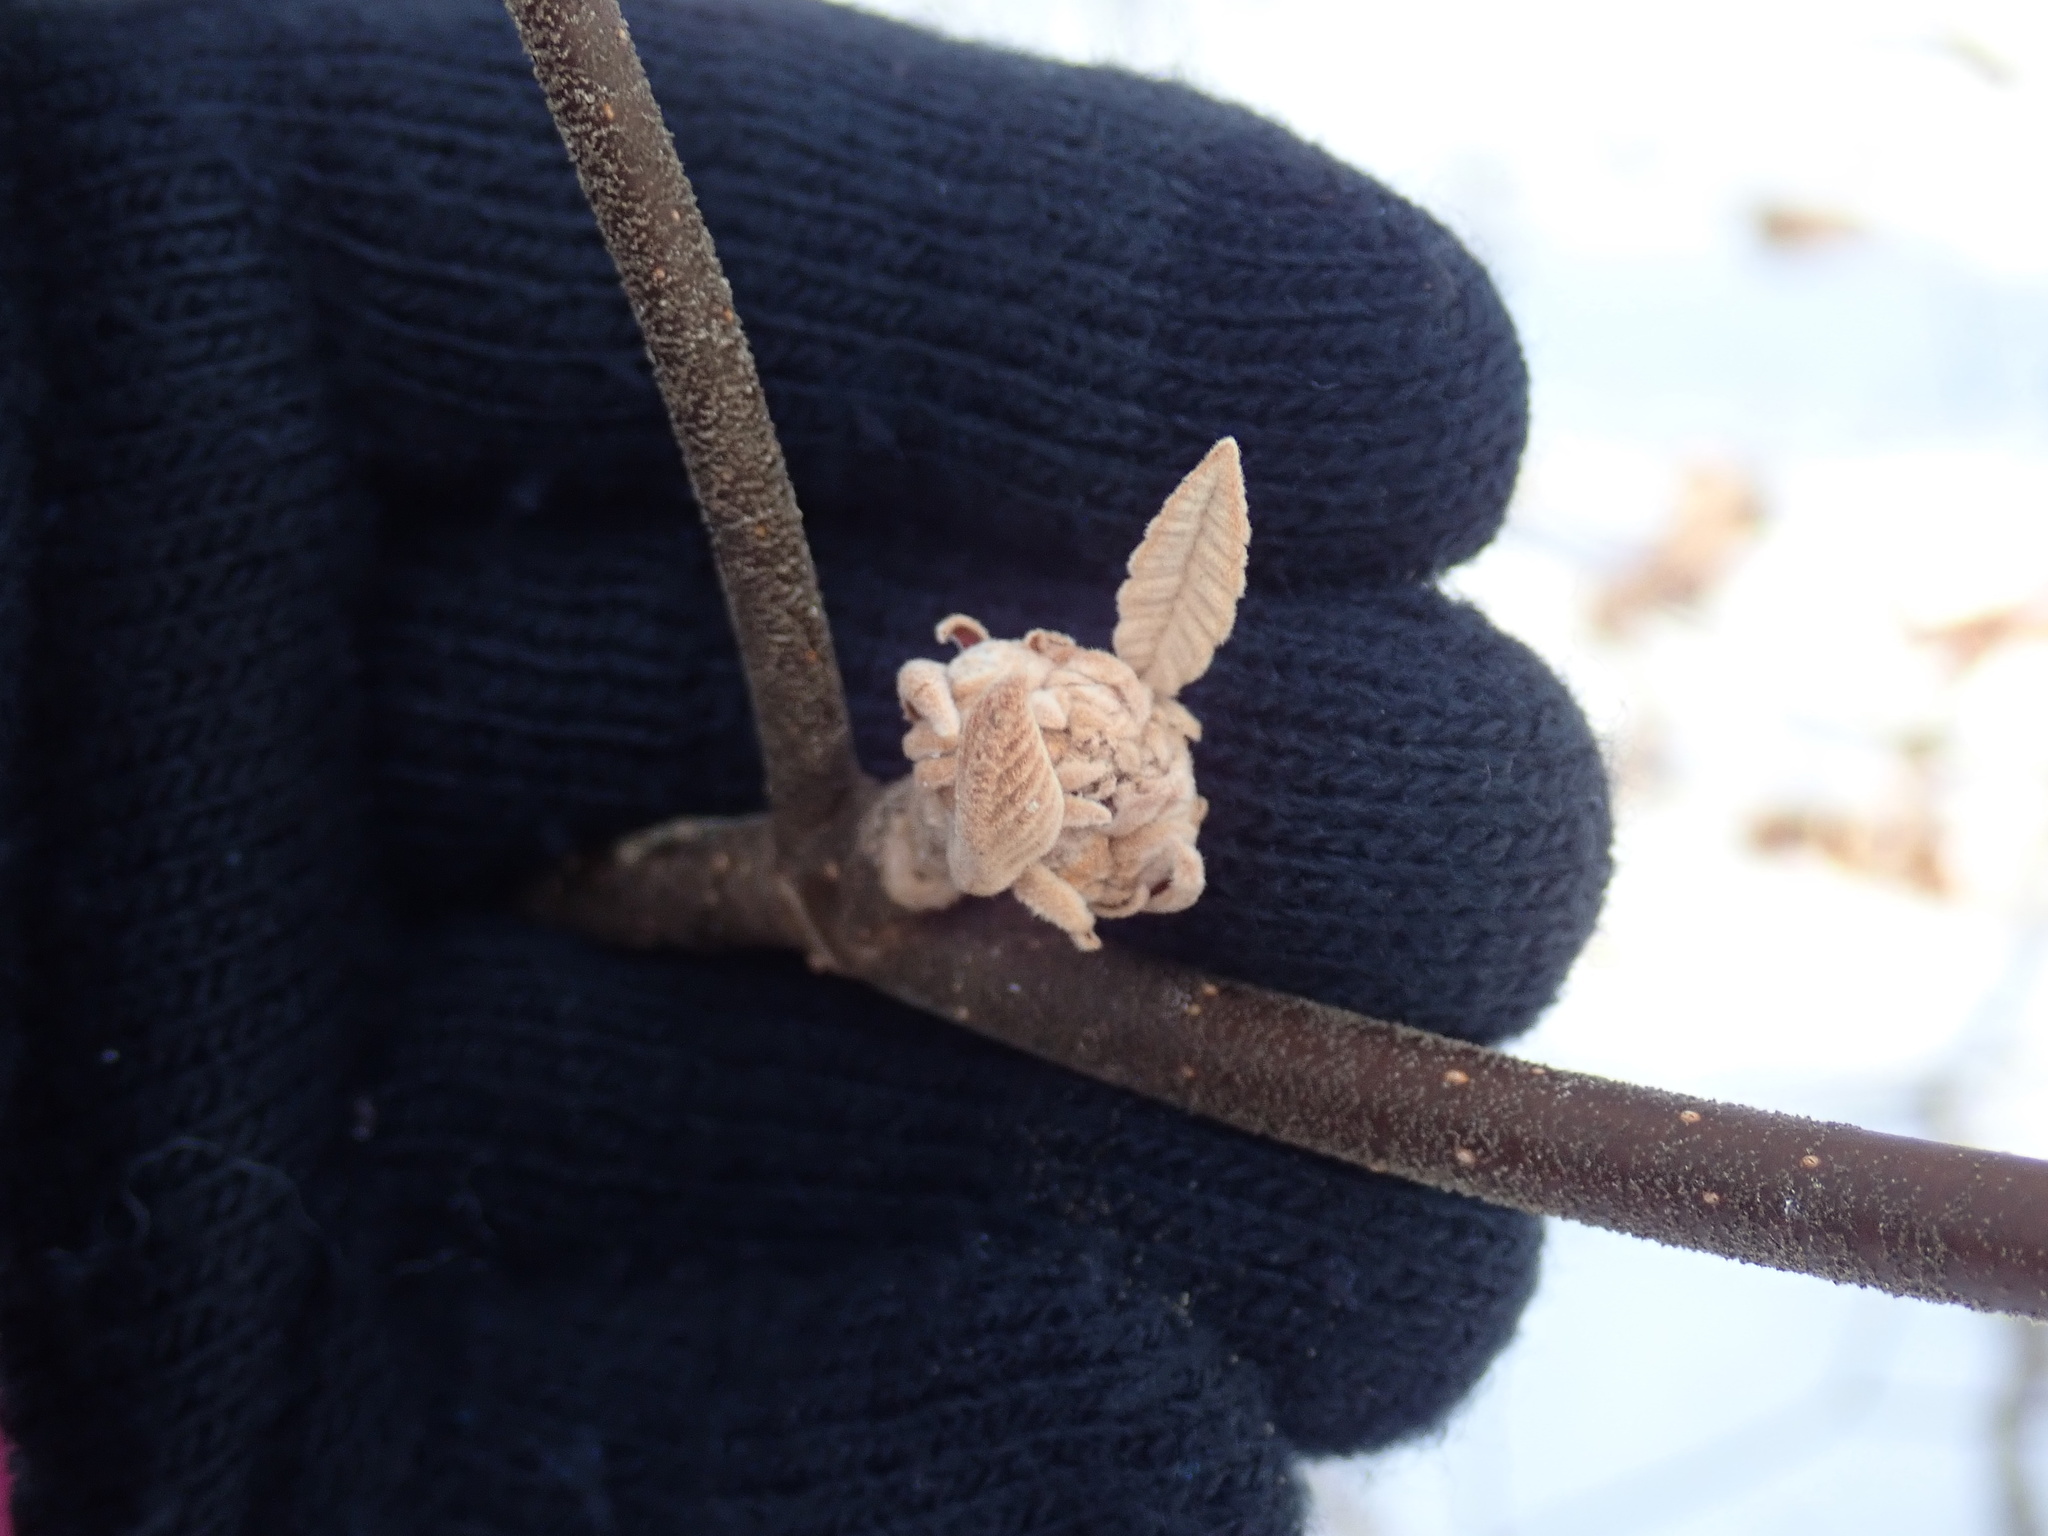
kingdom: Plantae
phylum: Tracheophyta
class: Magnoliopsida
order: Dipsacales
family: Viburnaceae
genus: Viburnum
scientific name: Viburnum lantanoides
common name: Hobblebush
